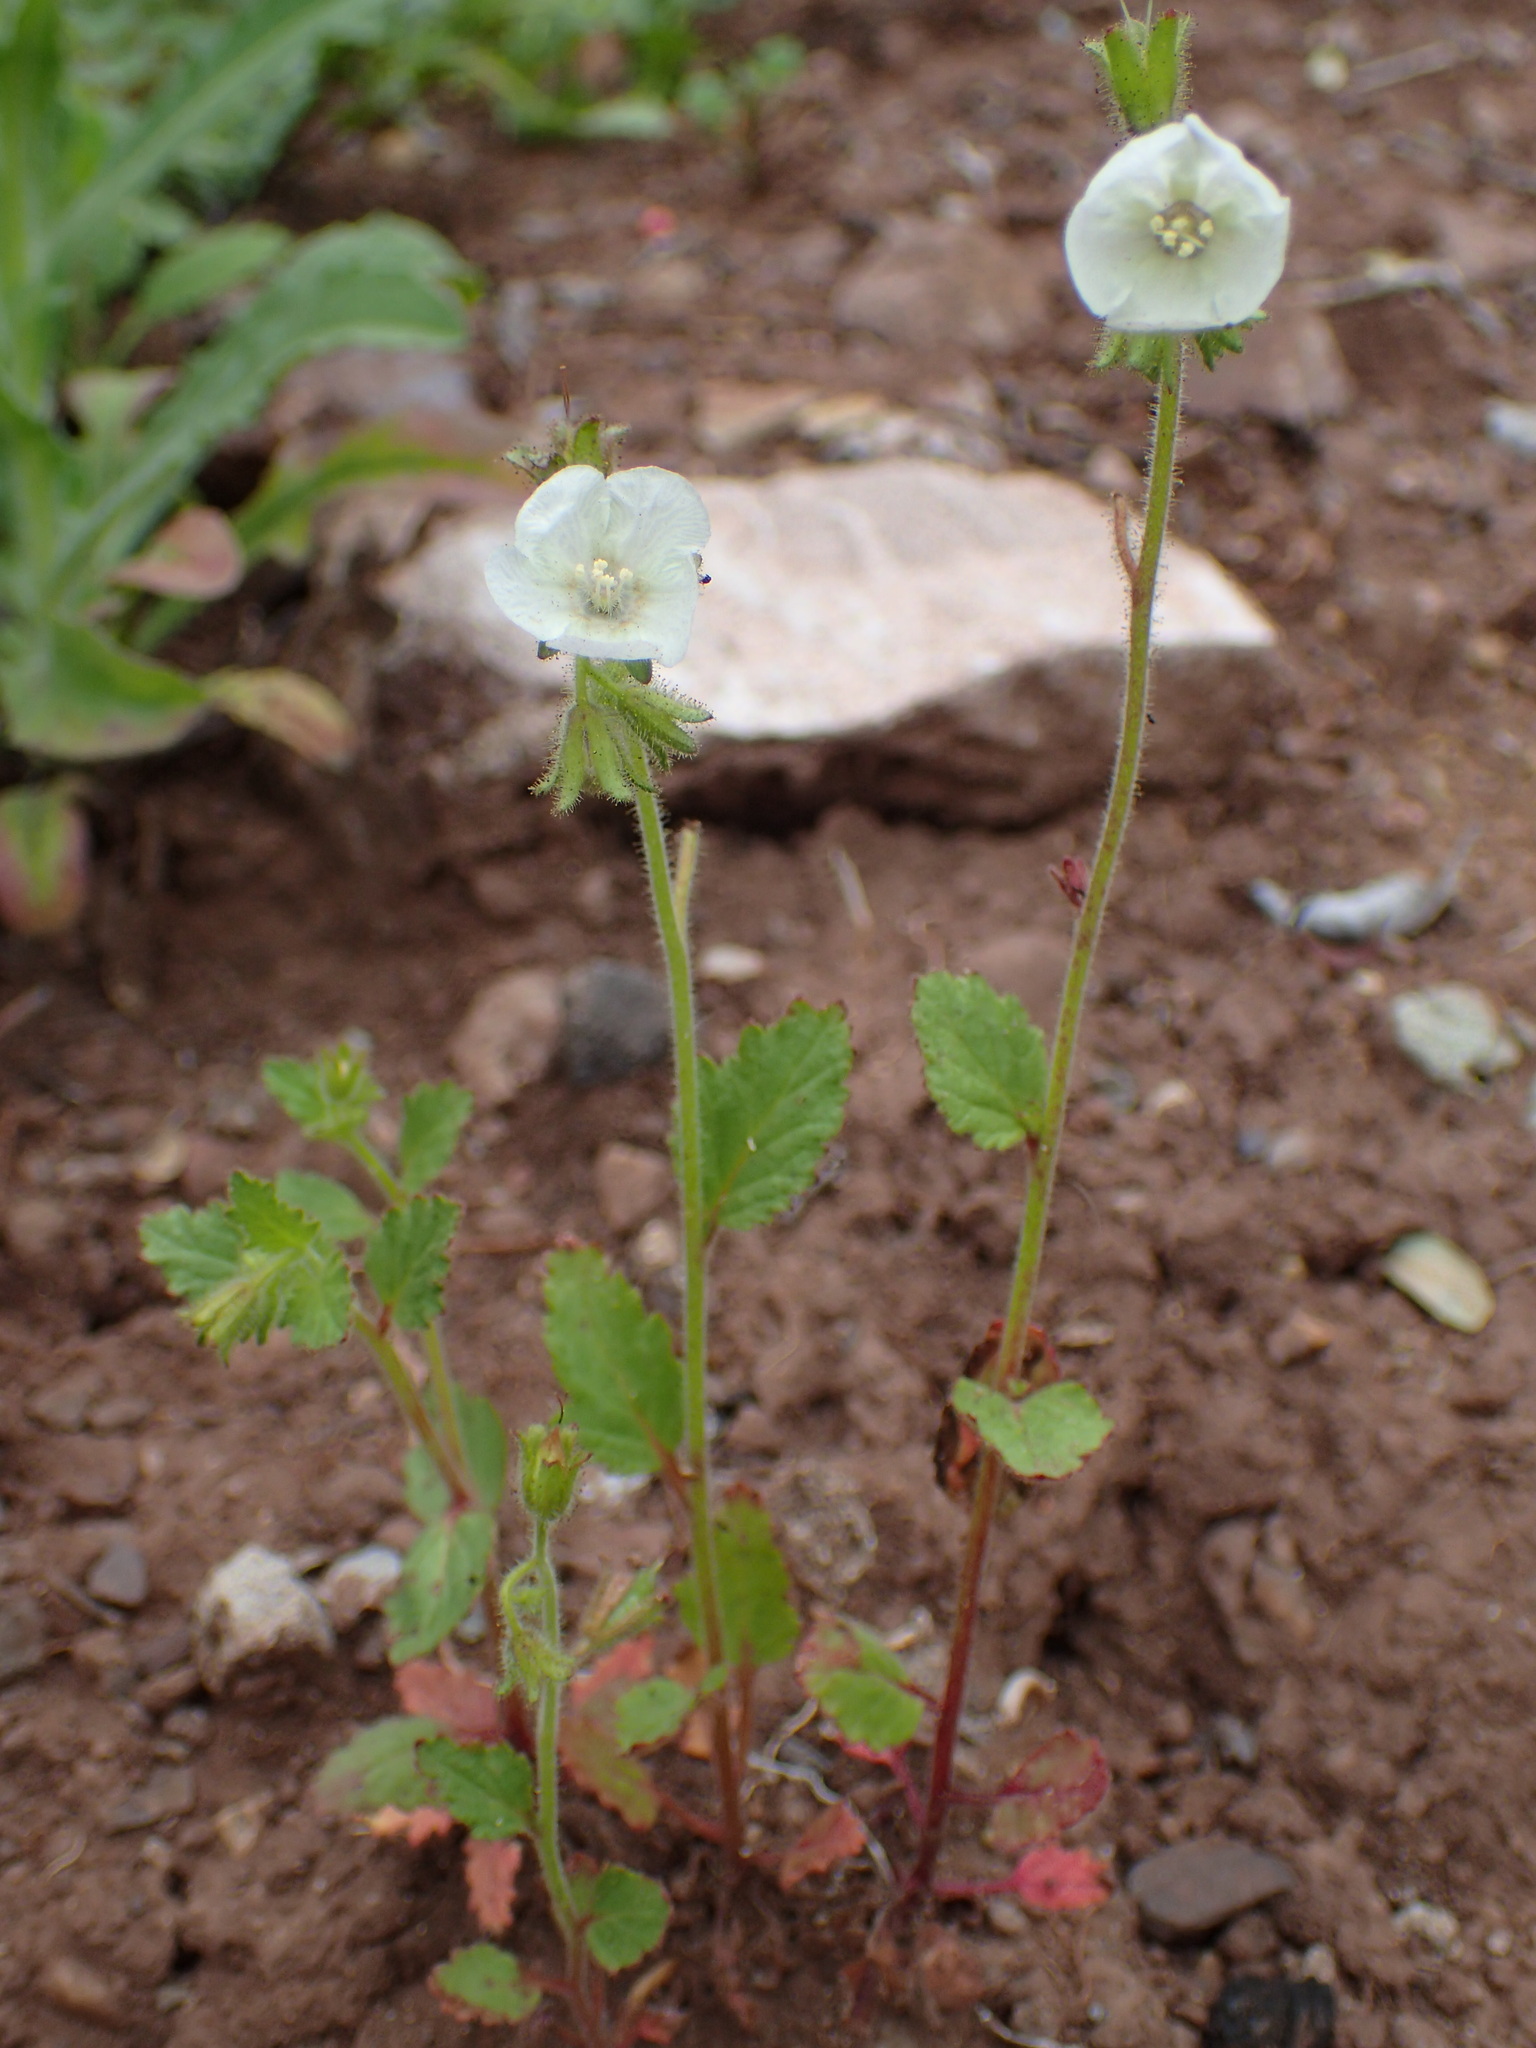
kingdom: Plantae
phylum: Tracheophyta
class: Magnoliopsida
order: Boraginales
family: Hydrophyllaceae
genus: Phacelia
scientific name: Phacelia viscida
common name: Sticky phacelia
